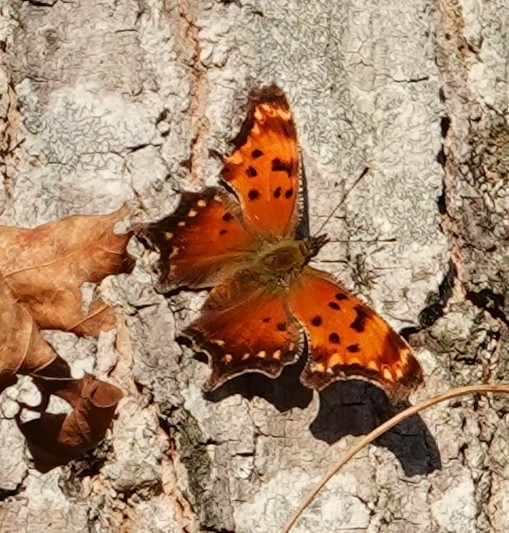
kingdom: Animalia
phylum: Arthropoda
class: Insecta
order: Lepidoptera
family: Nymphalidae
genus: Polygonia
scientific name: Polygonia progne
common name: Gray comma
